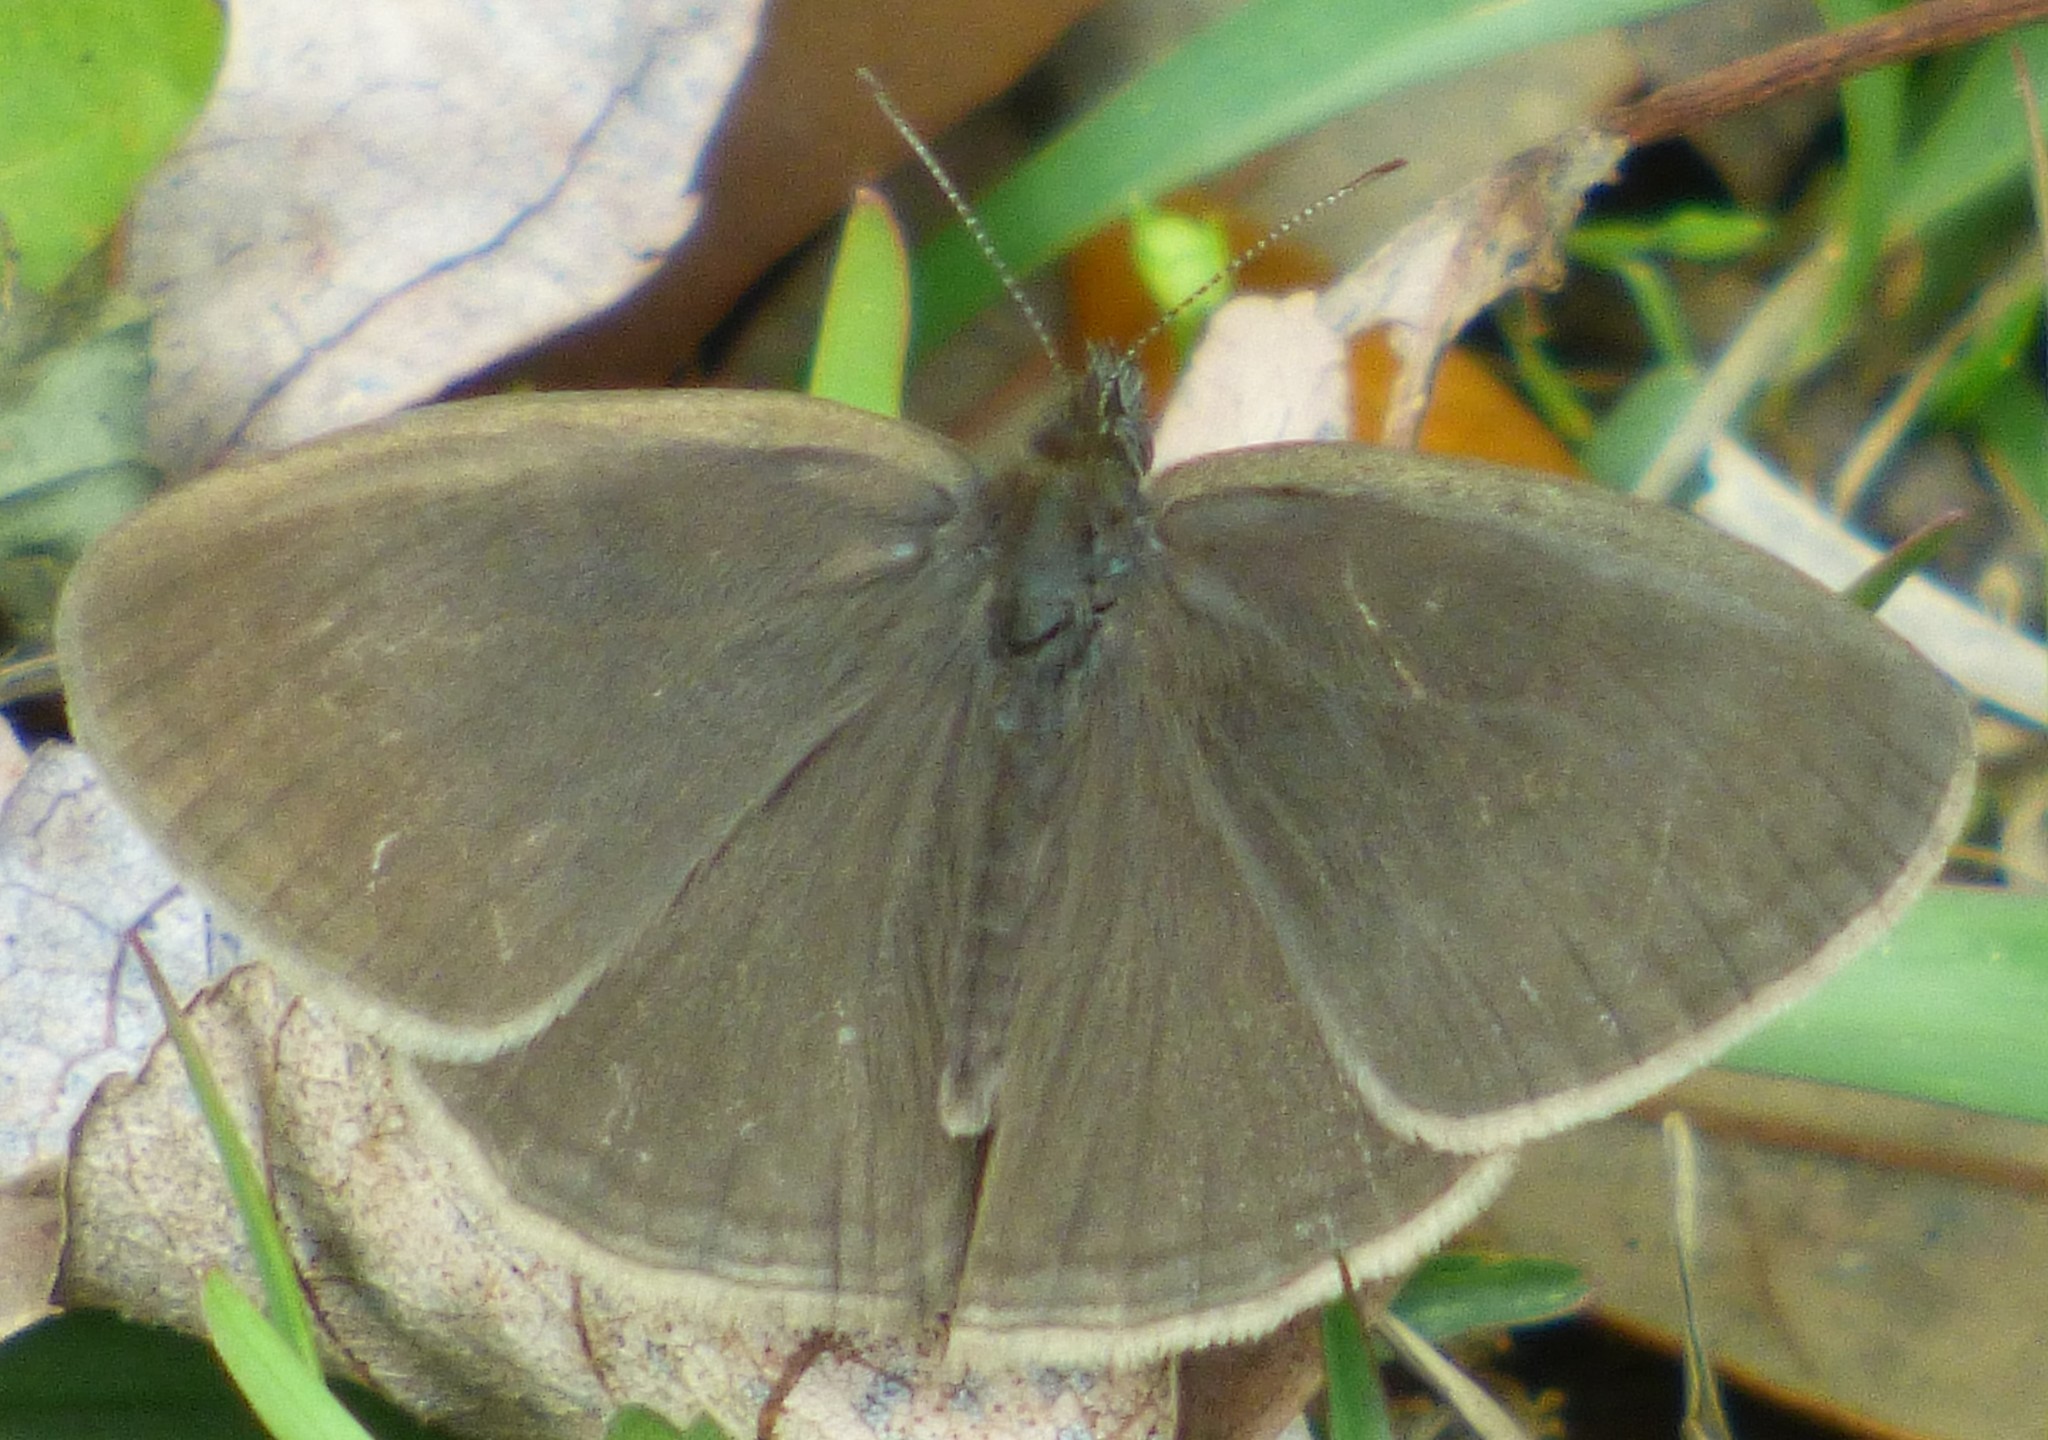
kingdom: Animalia
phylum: Arthropoda
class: Insecta
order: Lepidoptera
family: Nymphalidae
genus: Hermeuptychia
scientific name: Hermeuptychia hermes
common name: Hermes satyr
